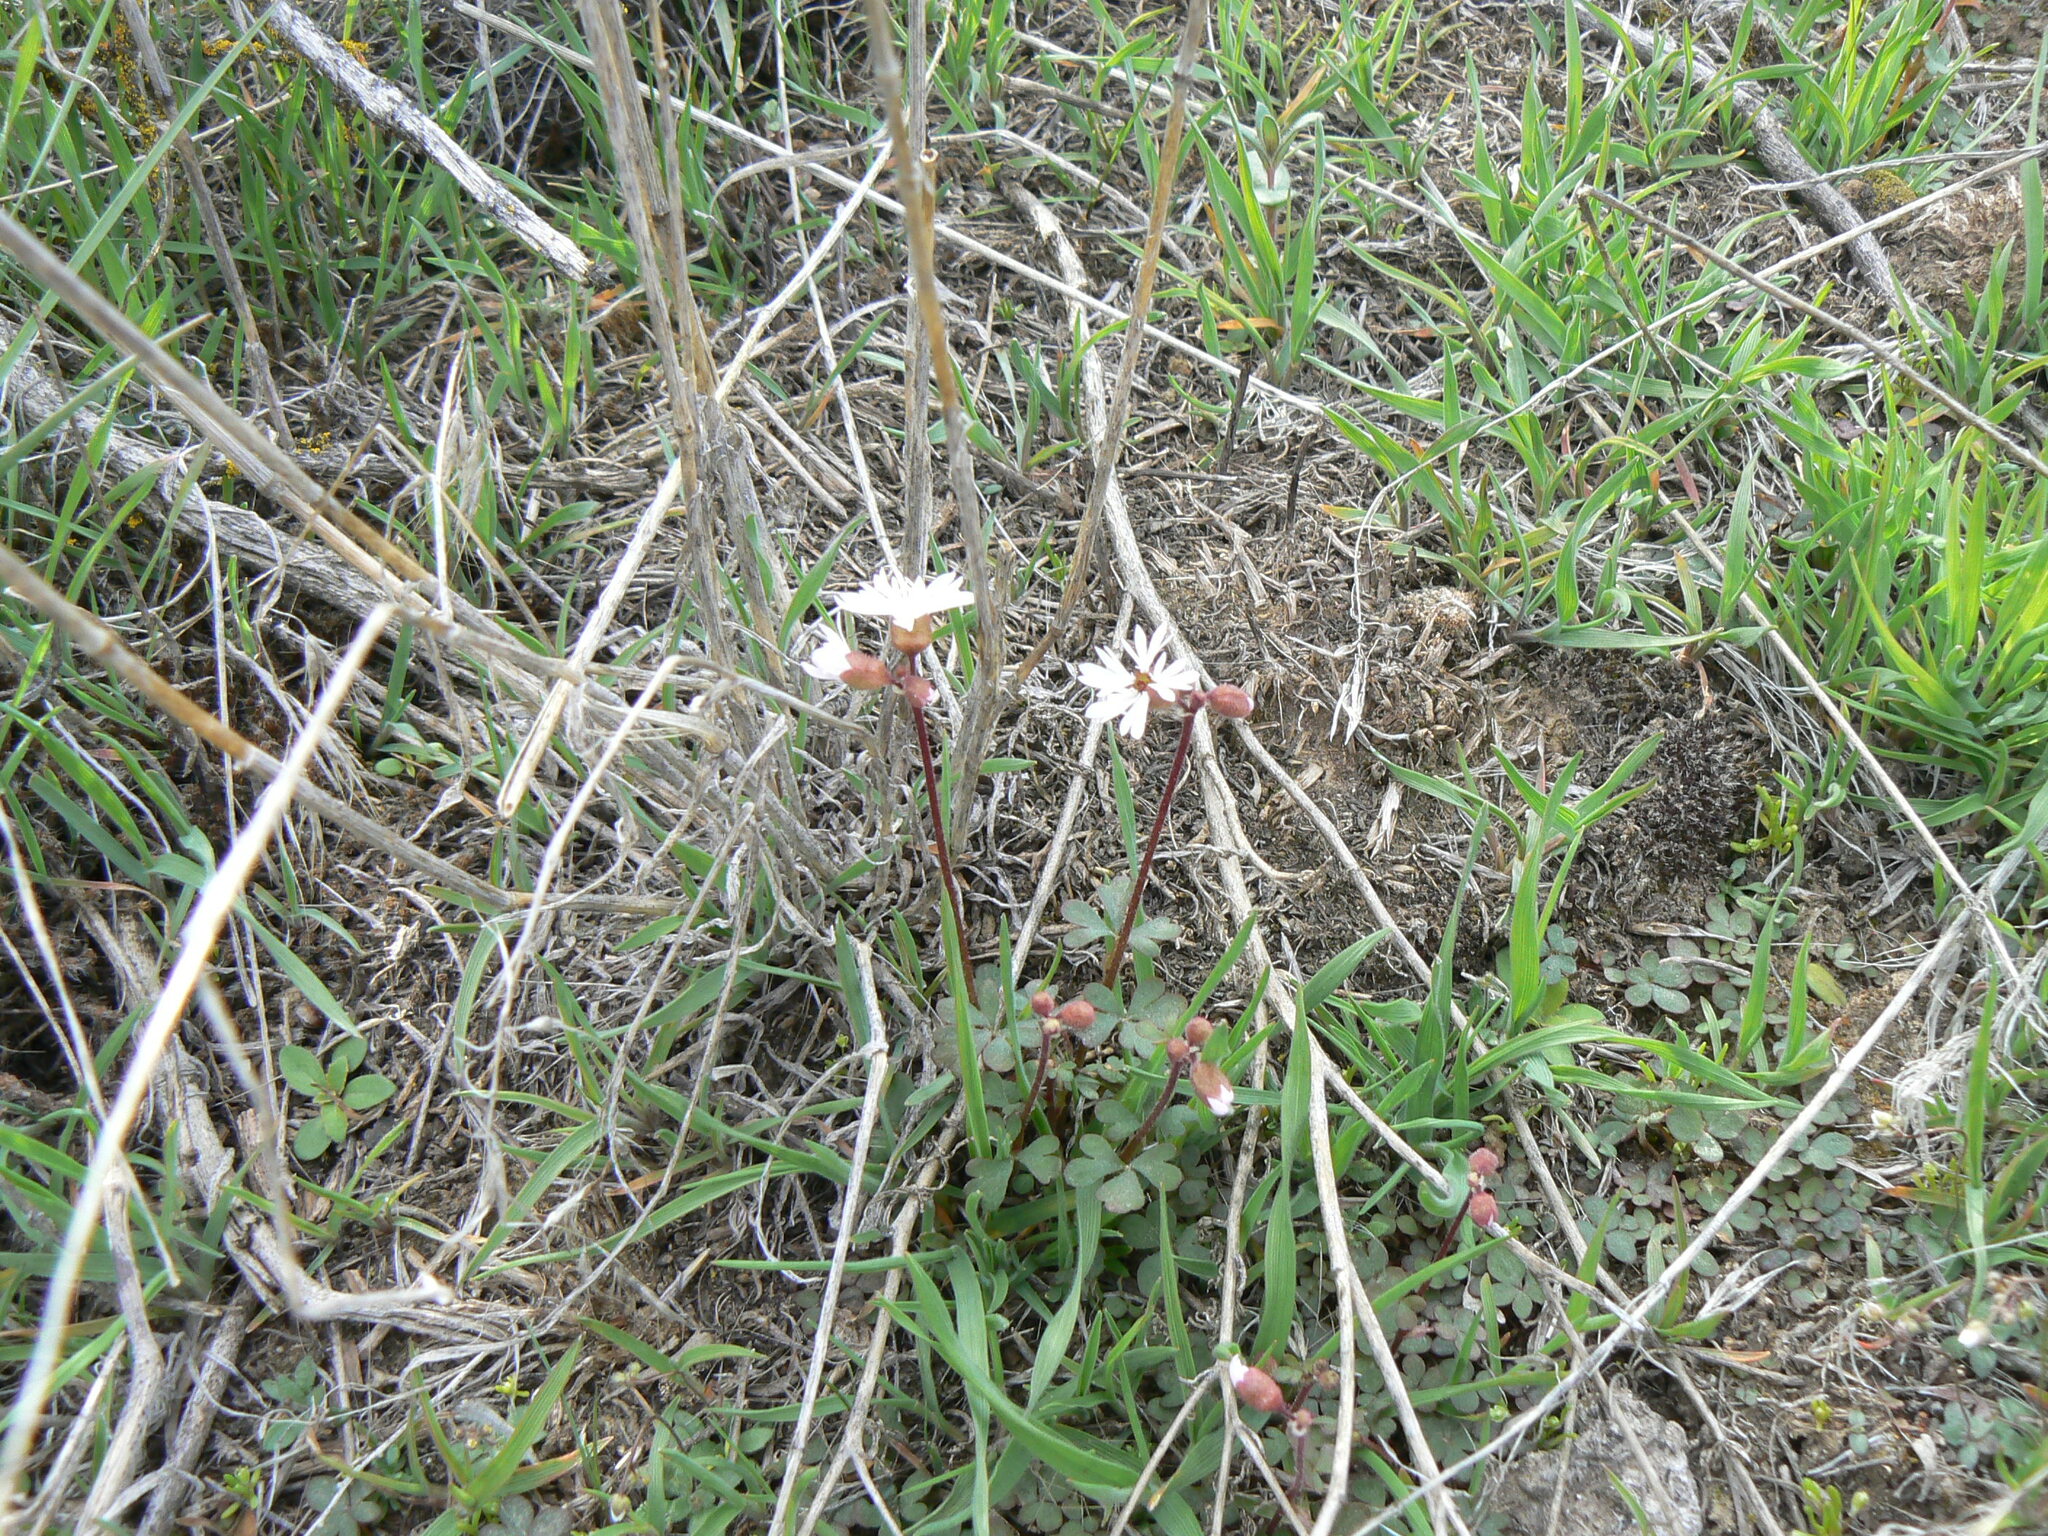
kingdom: Plantae
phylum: Tracheophyta
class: Magnoliopsida
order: Saxifragales
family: Saxifragaceae
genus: Lithophragma
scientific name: Lithophragma glabrum
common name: Bulbous prairie-star
